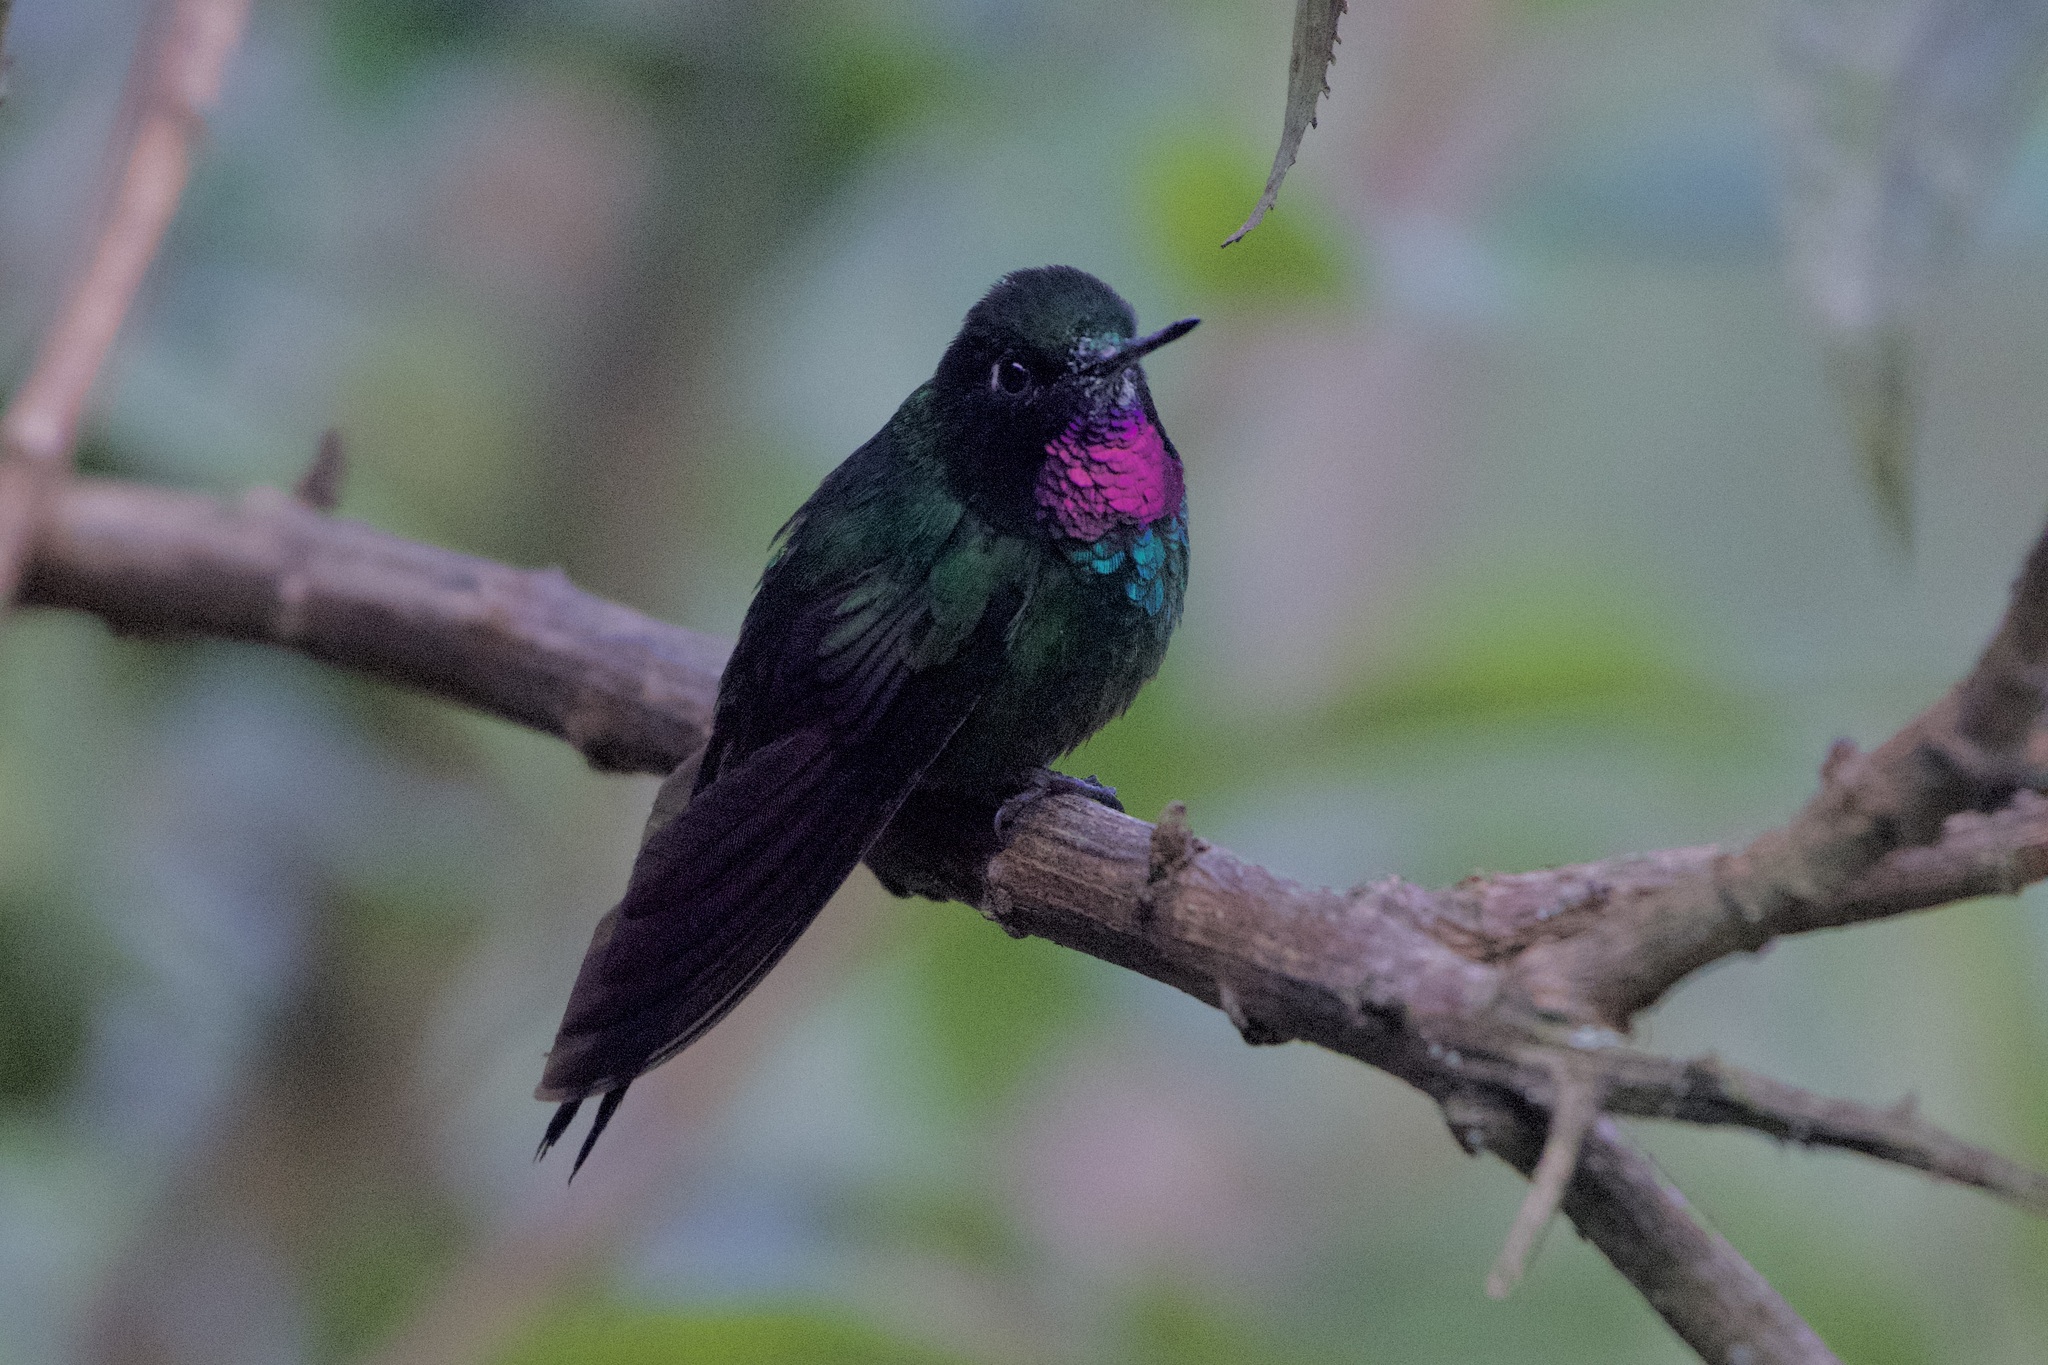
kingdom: Animalia
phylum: Chordata
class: Aves
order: Apodiformes
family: Trochilidae
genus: Heliangelus
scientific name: Heliangelus exortis
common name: Tourmaline sunangel
